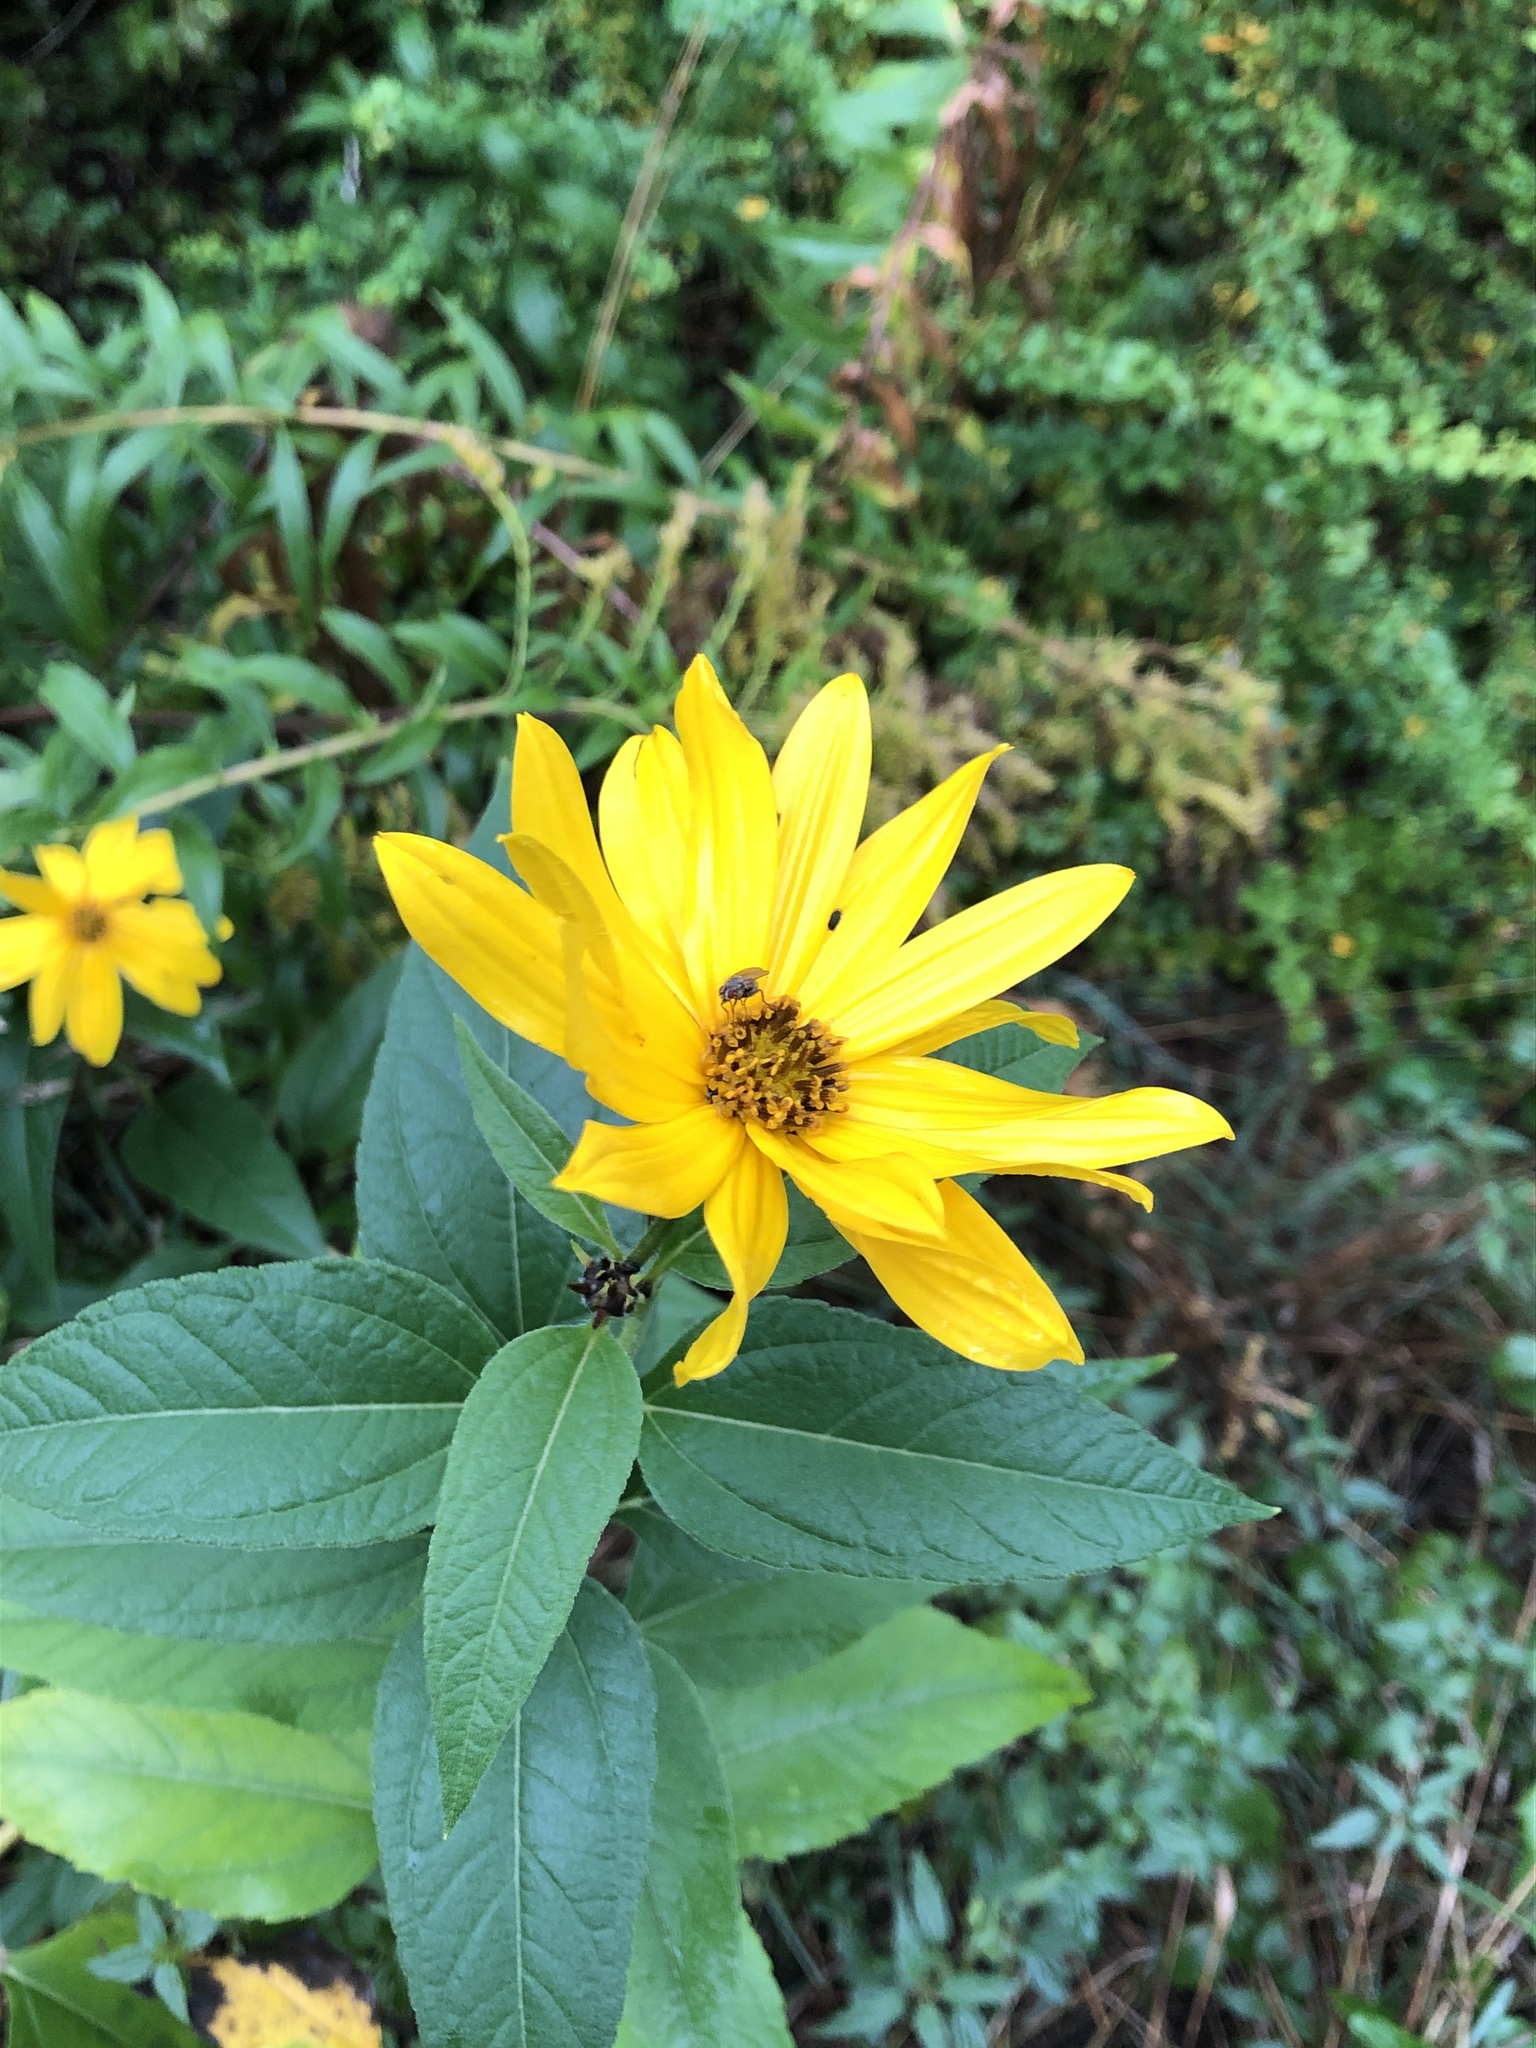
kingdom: Plantae
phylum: Tracheophyta
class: Magnoliopsida
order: Asterales
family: Asteraceae
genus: Helianthus
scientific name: Helianthus tuberosus
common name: Jerusalem artichoke
